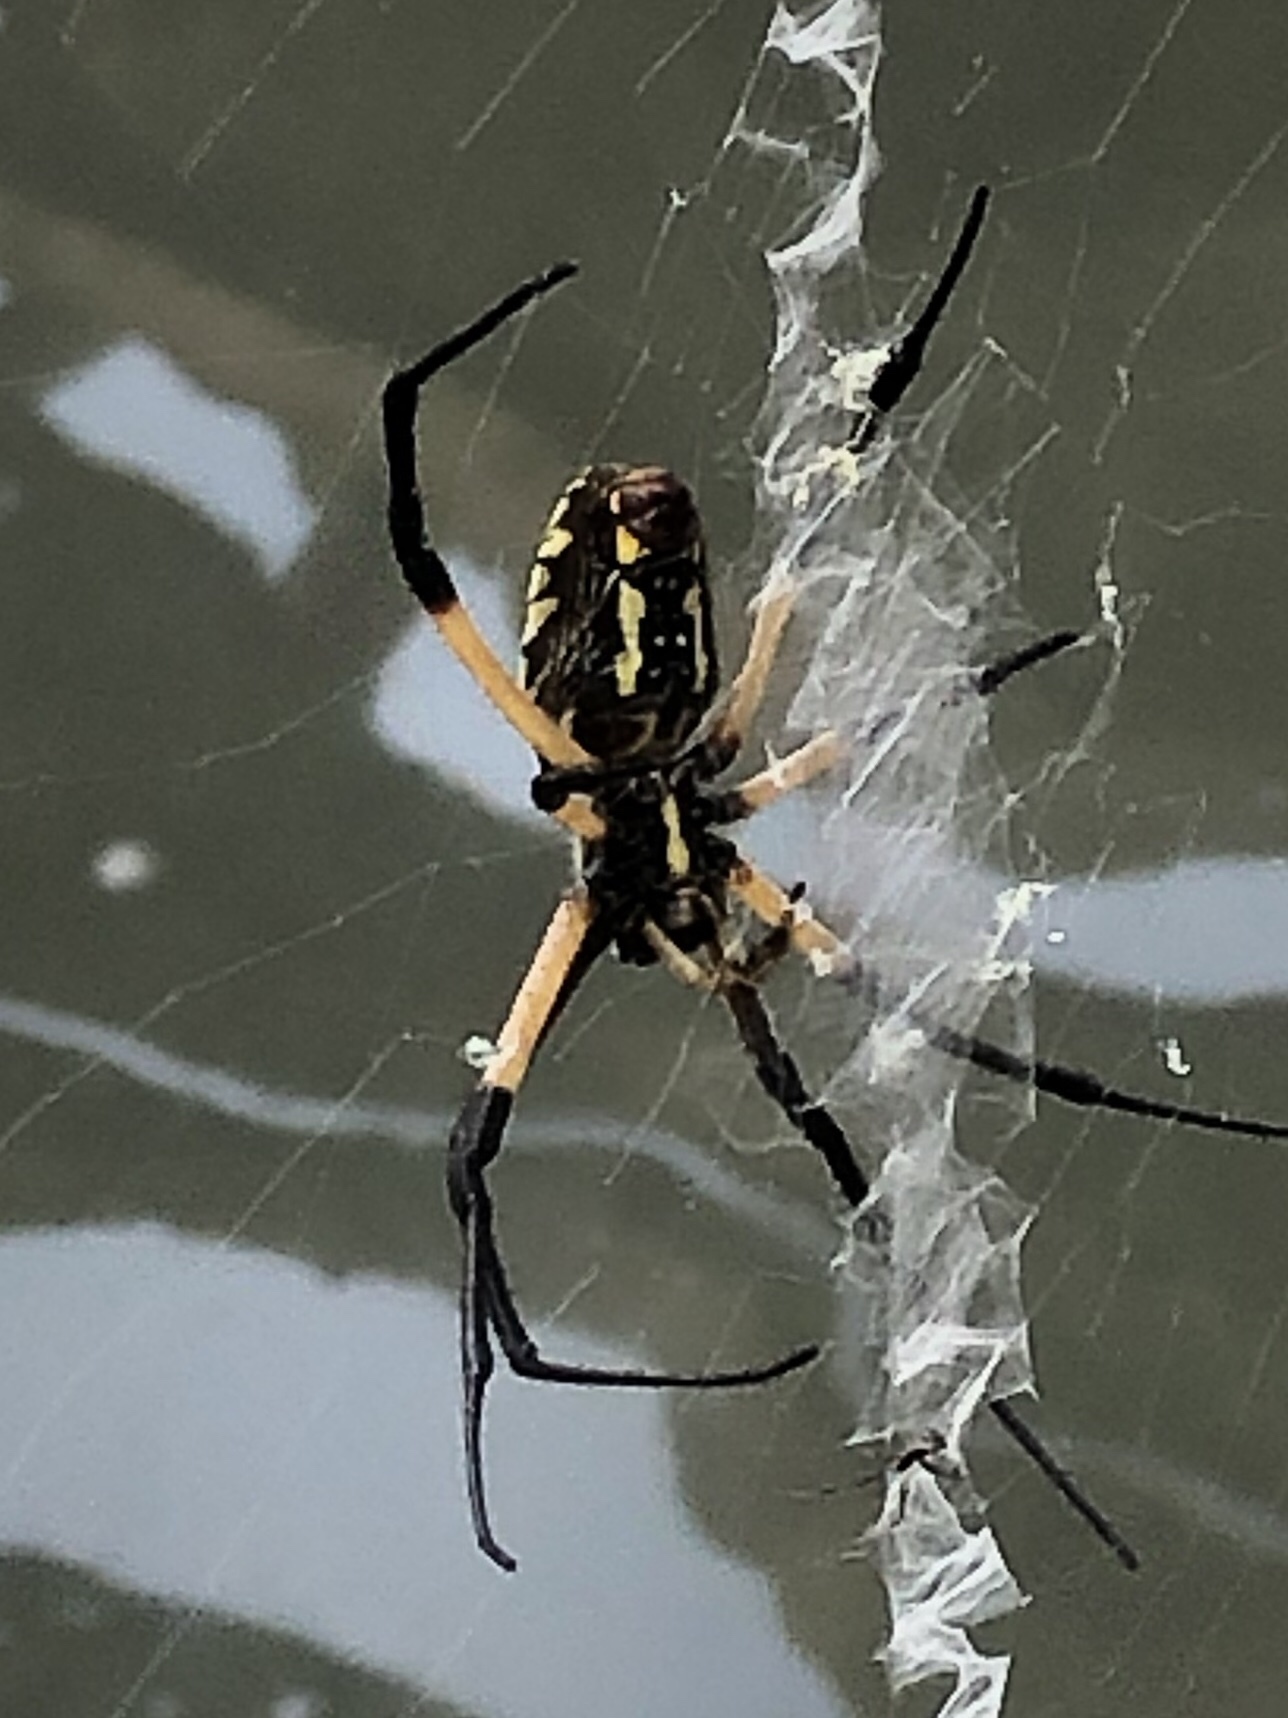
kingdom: Animalia
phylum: Arthropoda
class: Arachnida
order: Araneae
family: Araneidae
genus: Argiope
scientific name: Argiope aurantia
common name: Orb weavers
